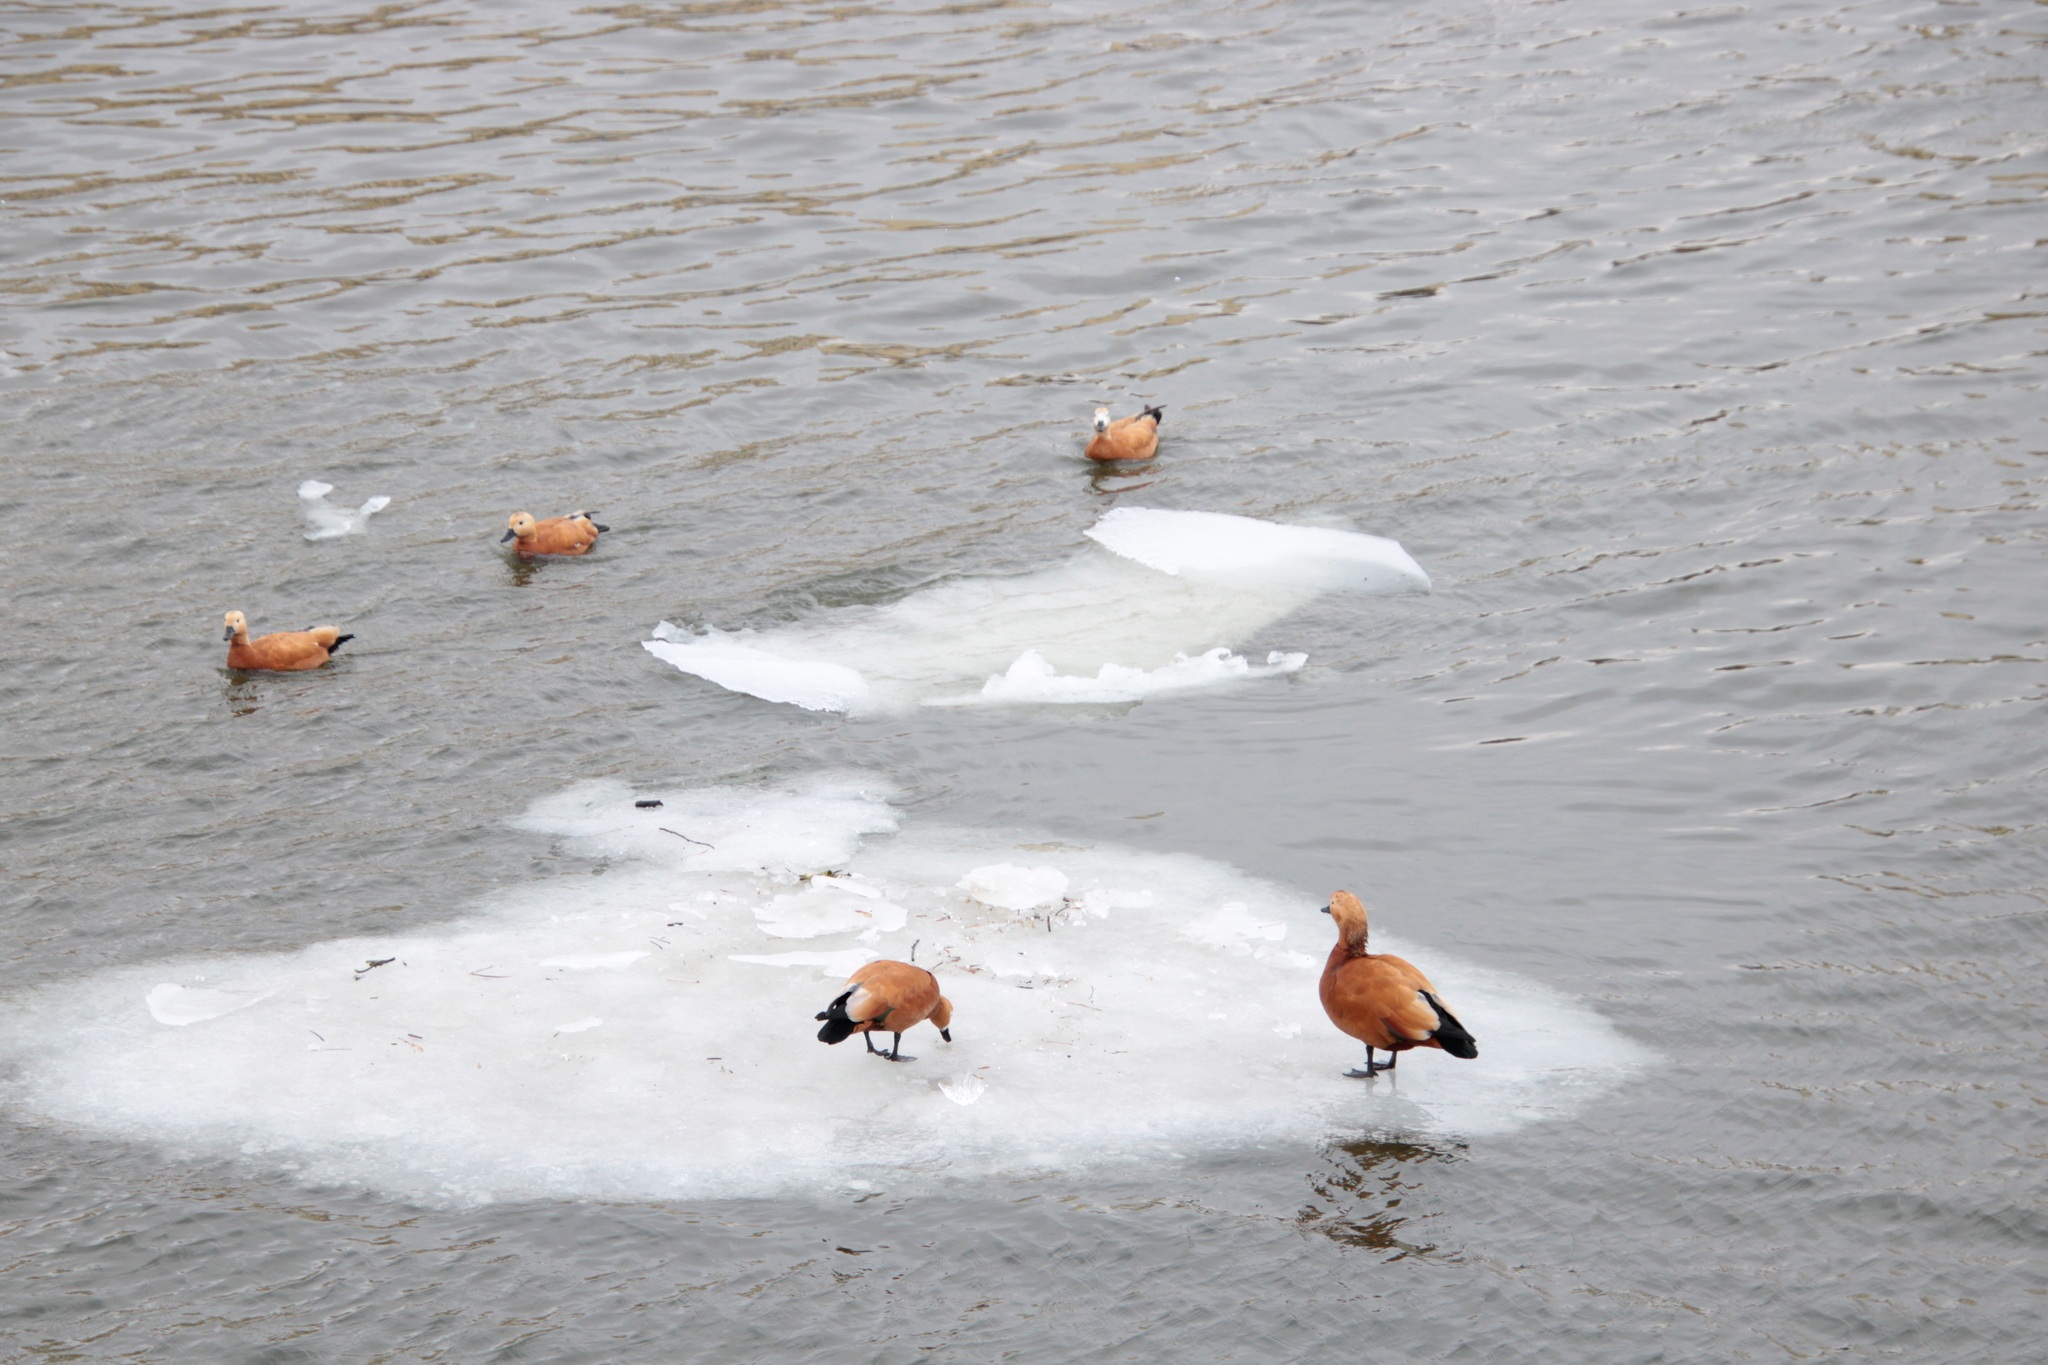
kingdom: Animalia
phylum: Chordata
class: Aves
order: Anseriformes
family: Anatidae
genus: Tadorna
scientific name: Tadorna ferruginea
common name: Ruddy shelduck
